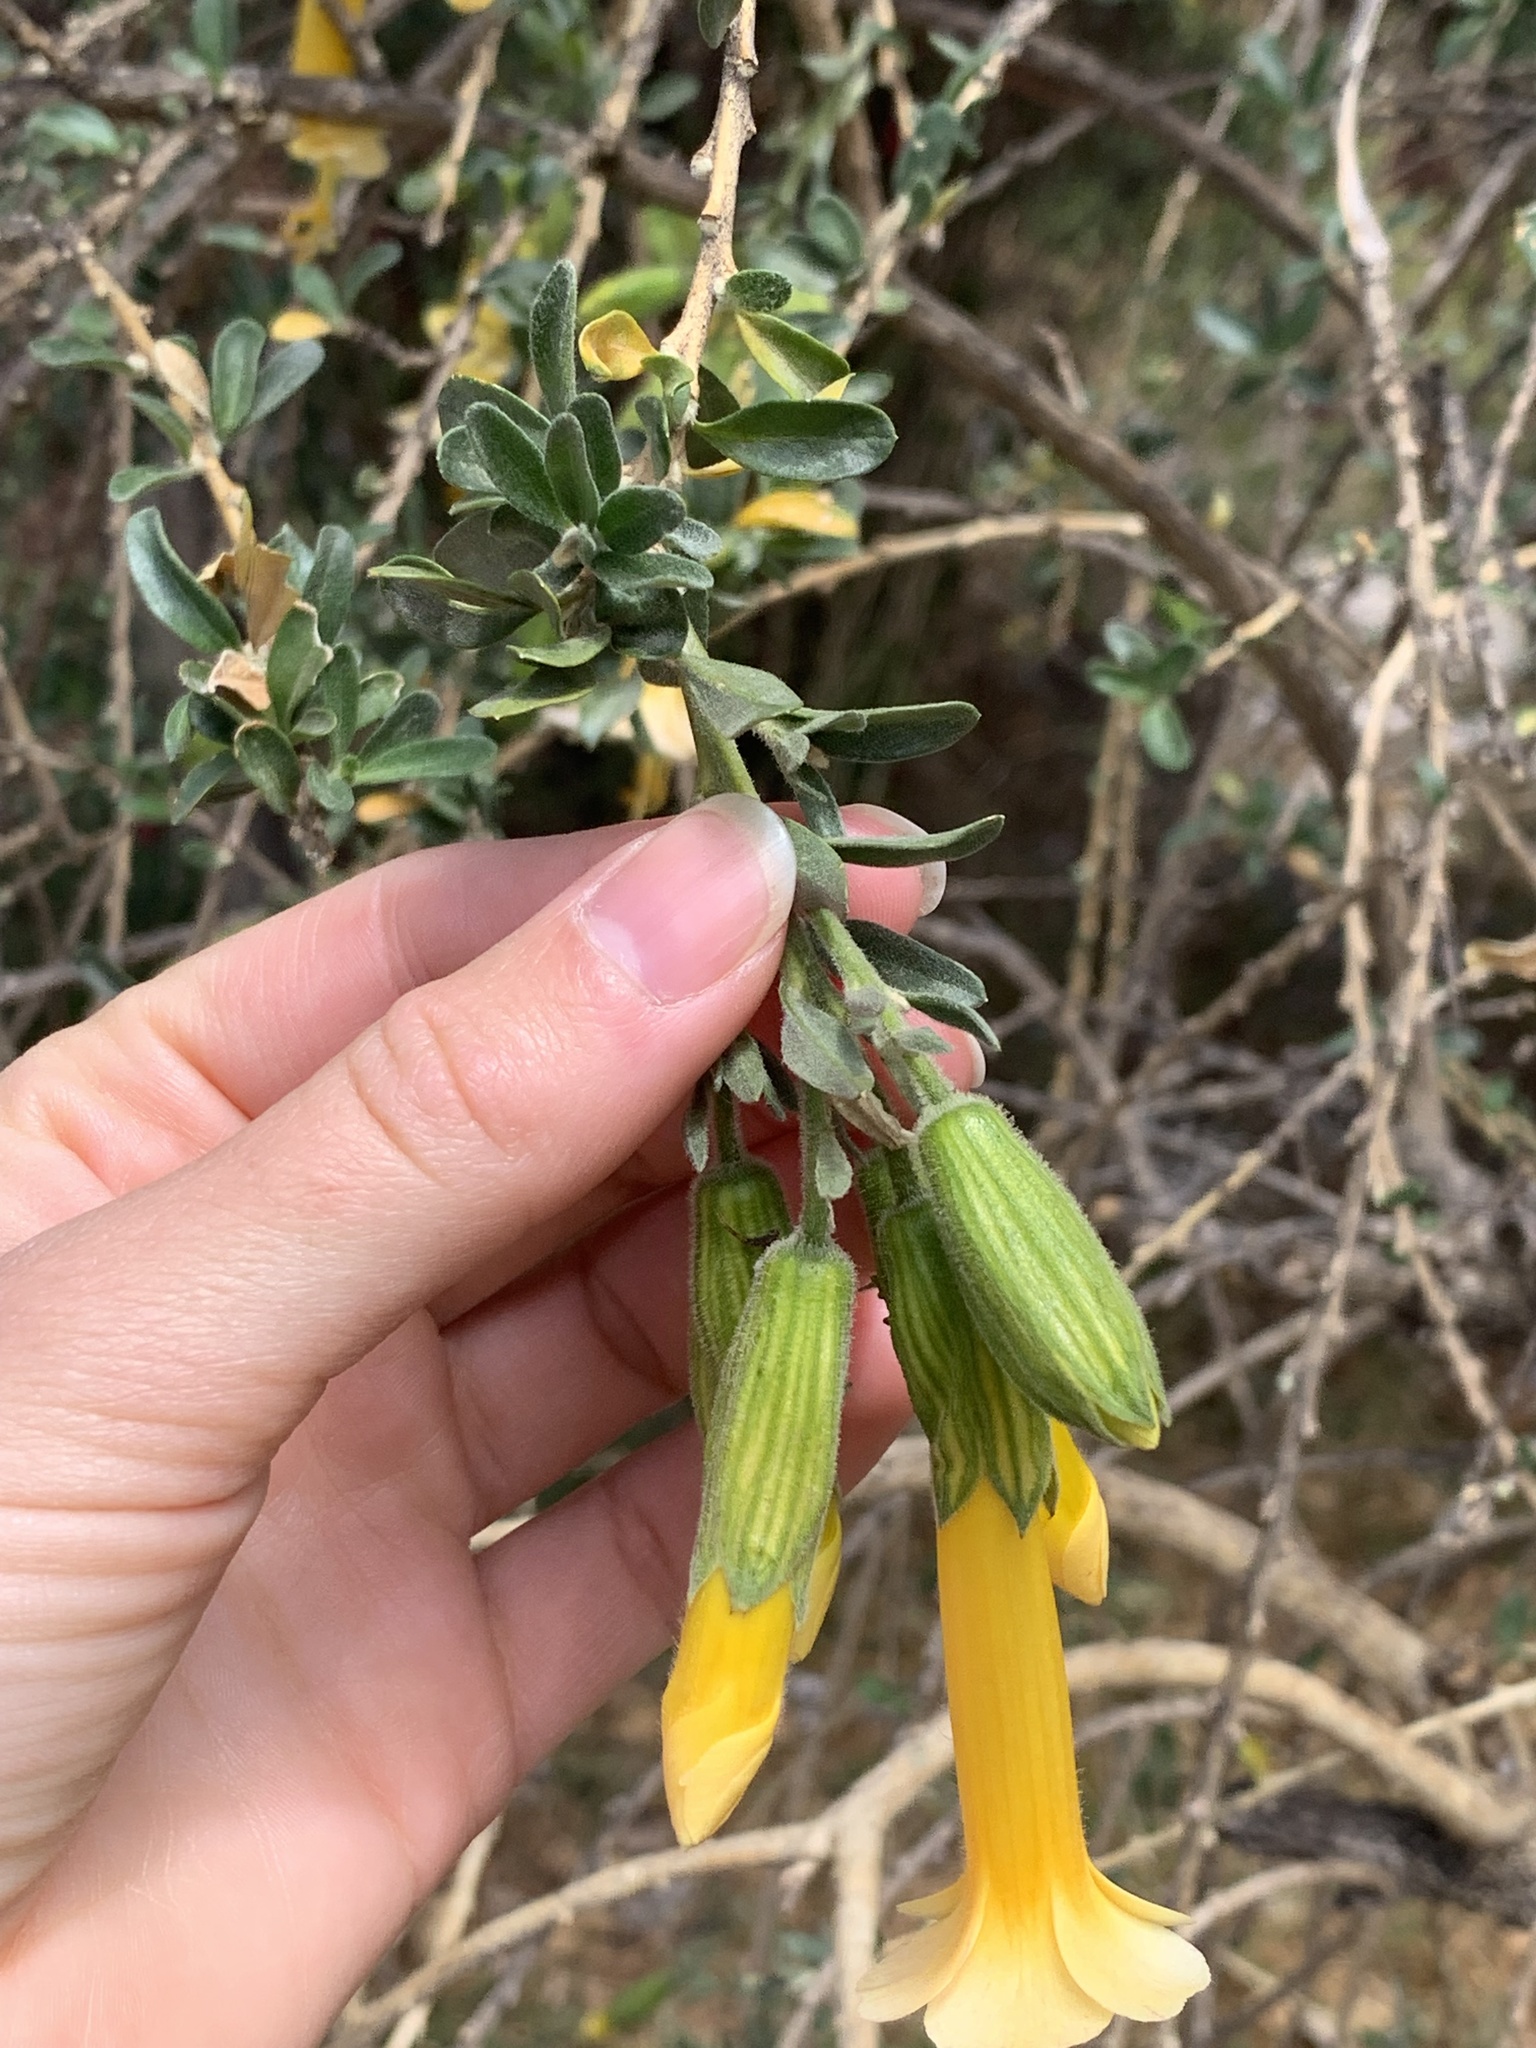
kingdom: Plantae
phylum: Tracheophyta
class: Magnoliopsida
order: Ericales
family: Polemoniaceae
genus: Cantua
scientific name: Cantua buxifolia
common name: Sacred-flower-of-the-incas
